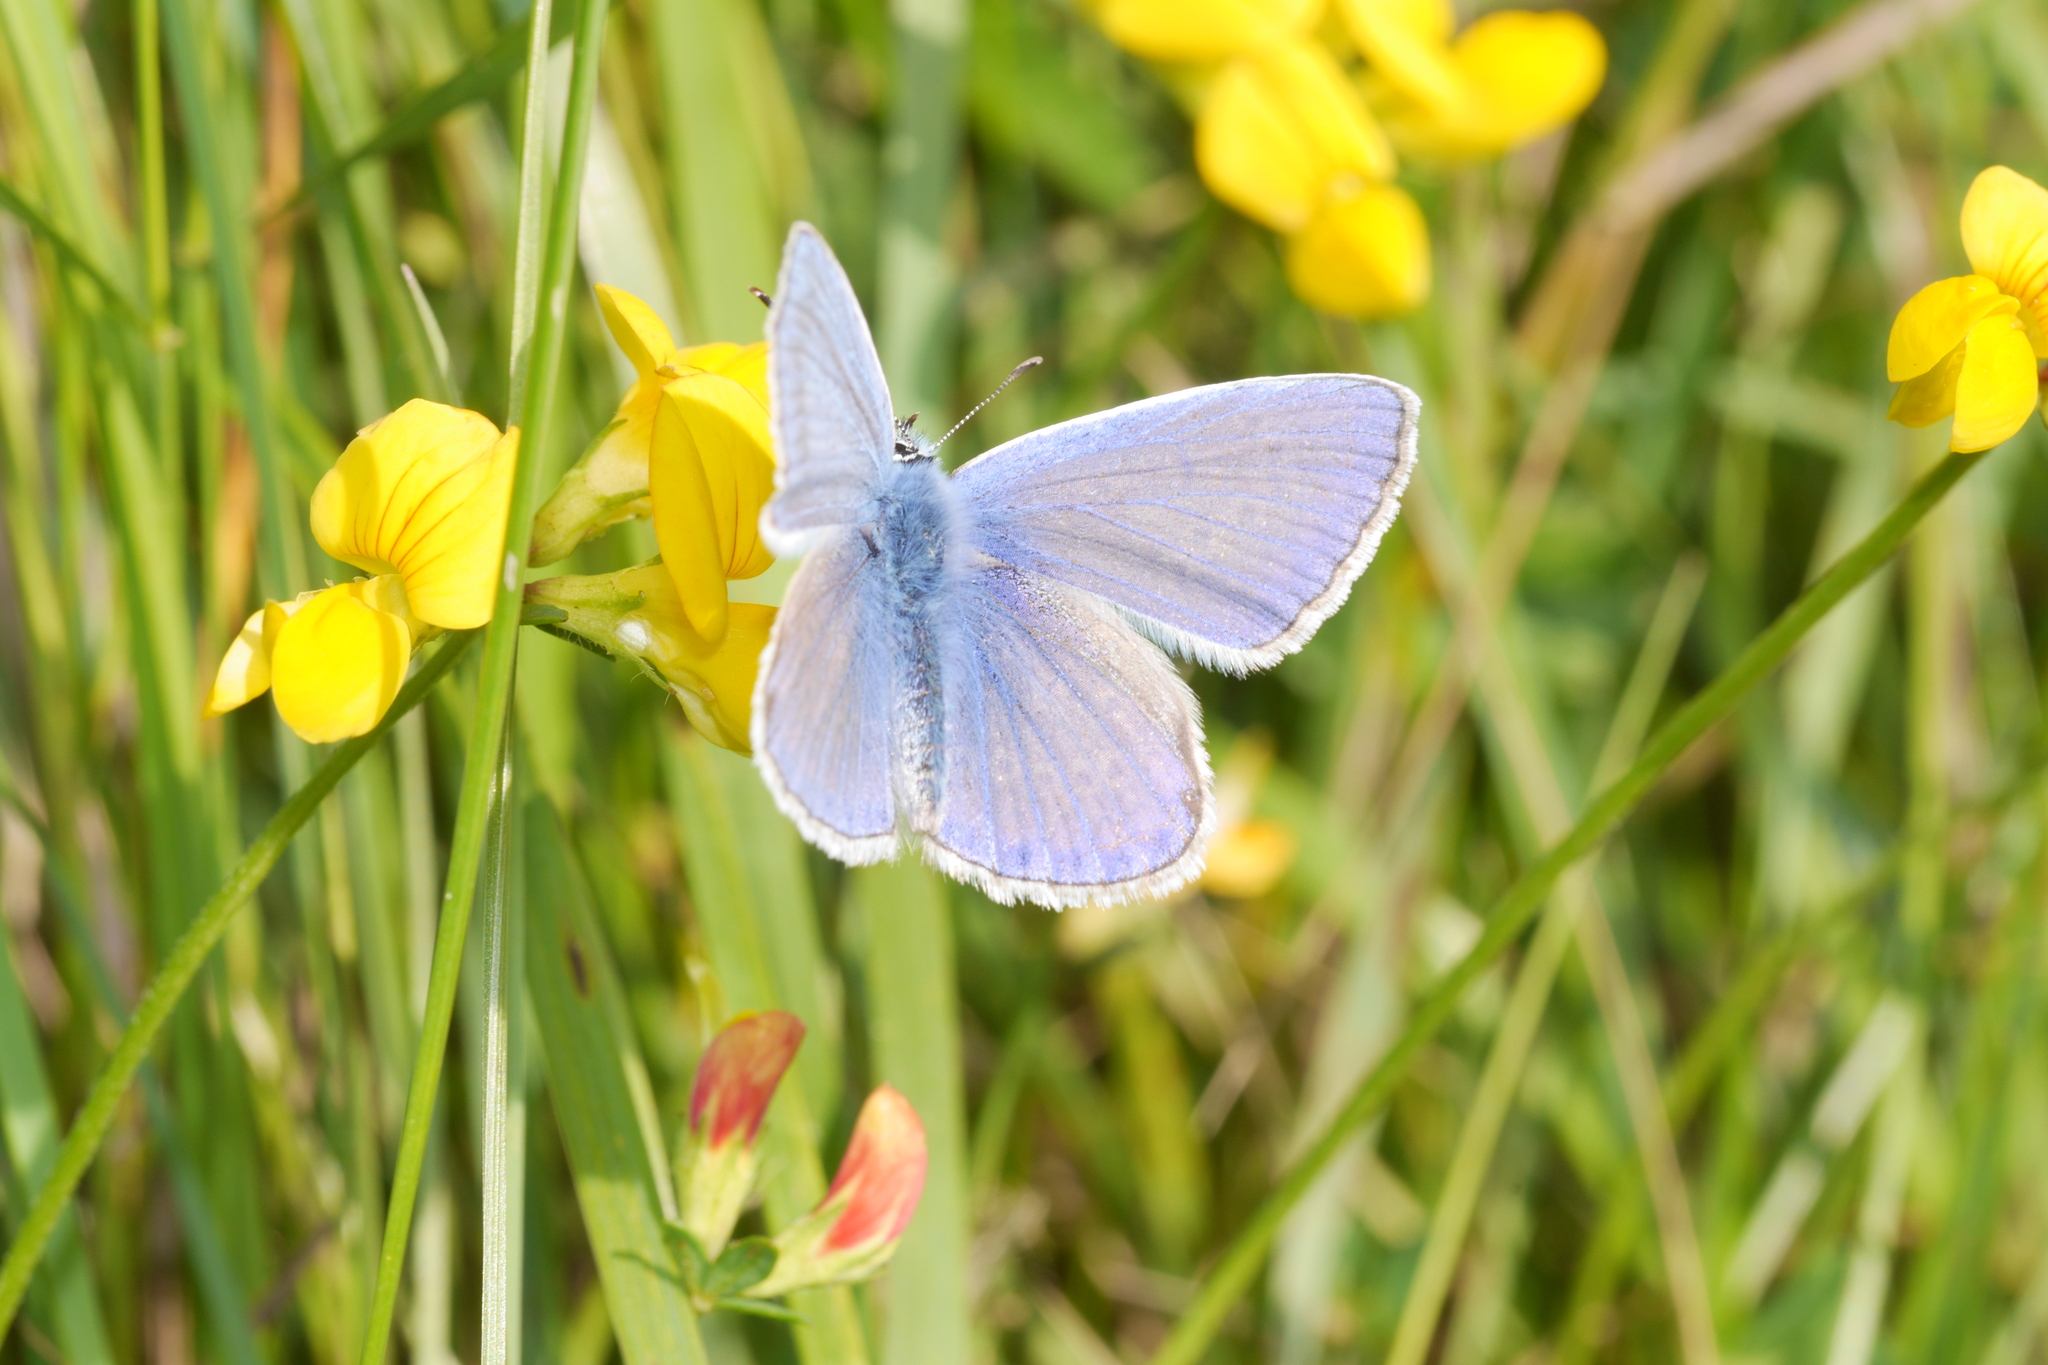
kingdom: Animalia
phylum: Arthropoda
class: Insecta
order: Lepidoptera
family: Lycaenidae
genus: Polyommatus
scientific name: Polyommatus icarus
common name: Common blue
